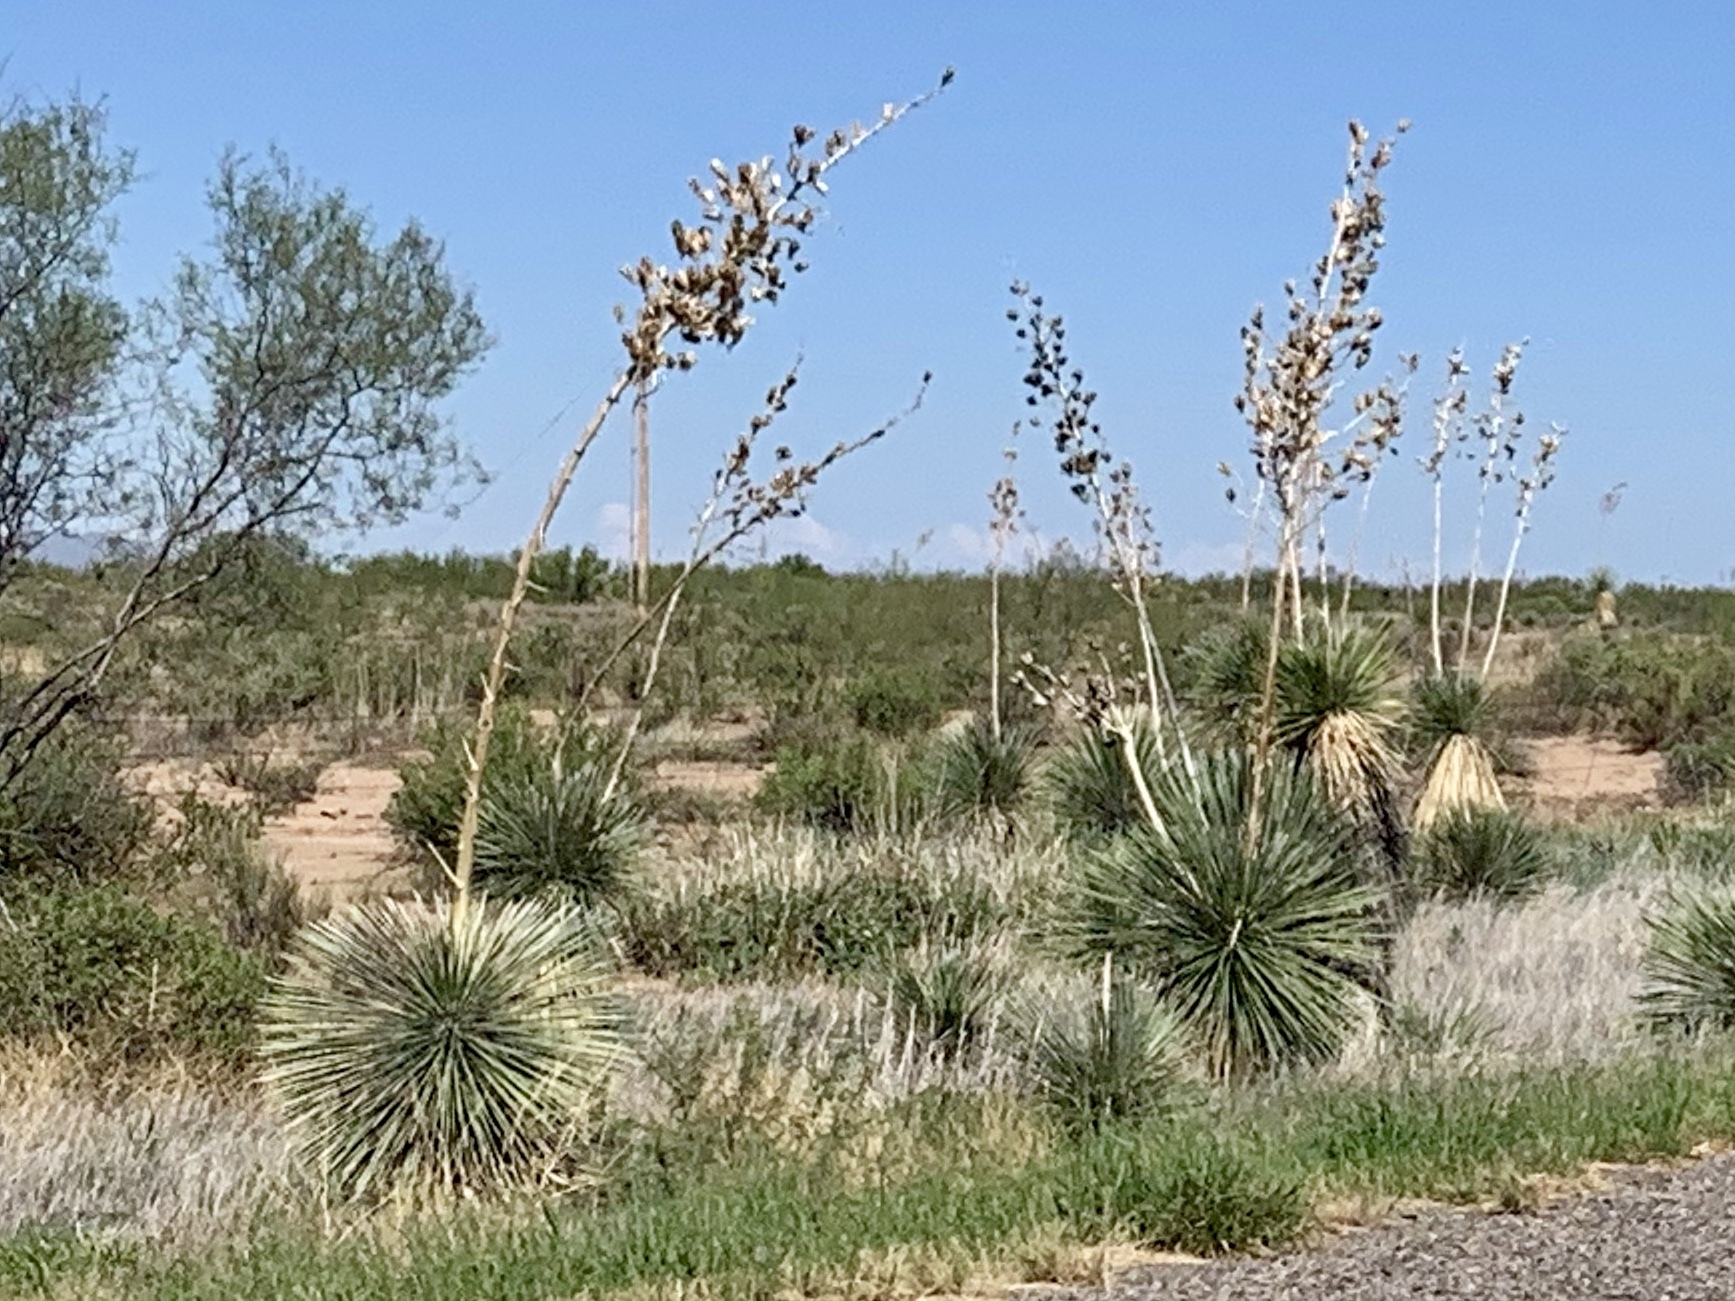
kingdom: Plantae
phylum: Tracheophyta
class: Liliopsida
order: Asparagales
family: Asparagaceae
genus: Yucca
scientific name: Yucca elata
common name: Palmella
